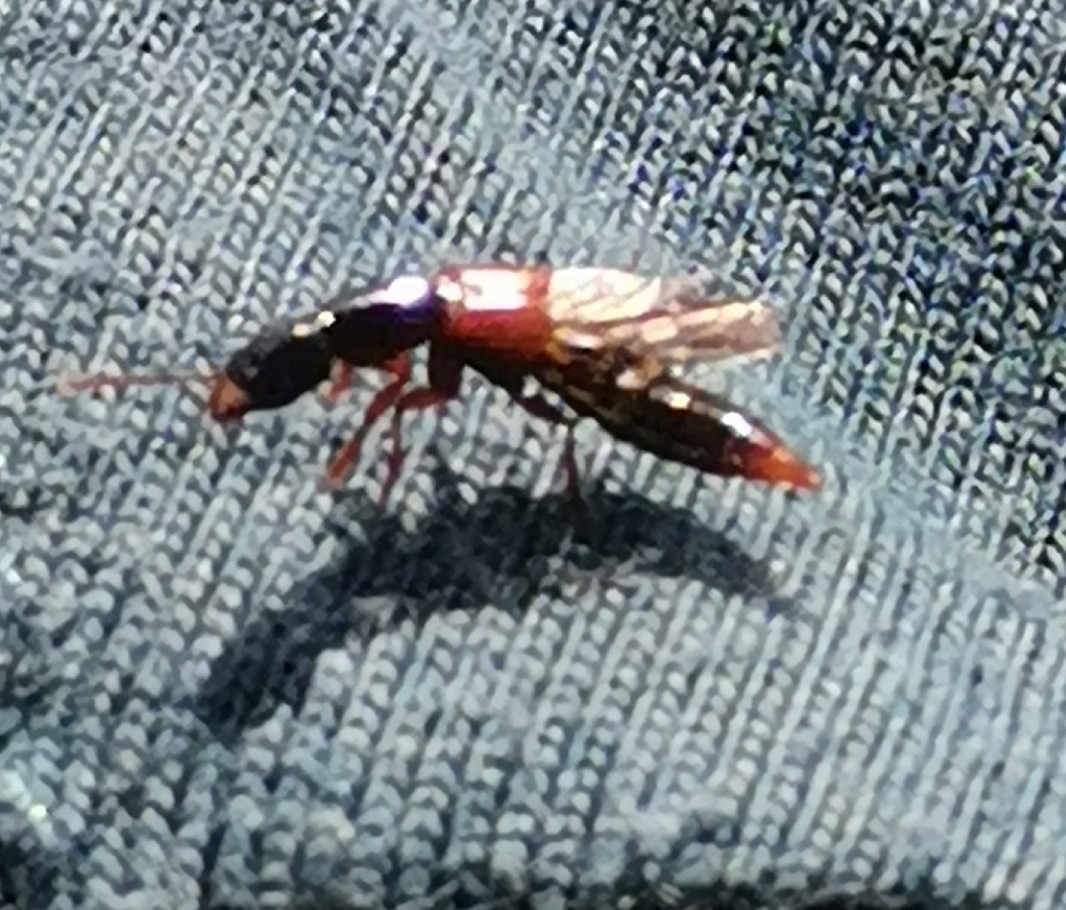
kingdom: Animalia
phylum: Arthropoda
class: Insecta
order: Coleoptera
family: Staphylinidae
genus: Othius
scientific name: Othius punctulatus
